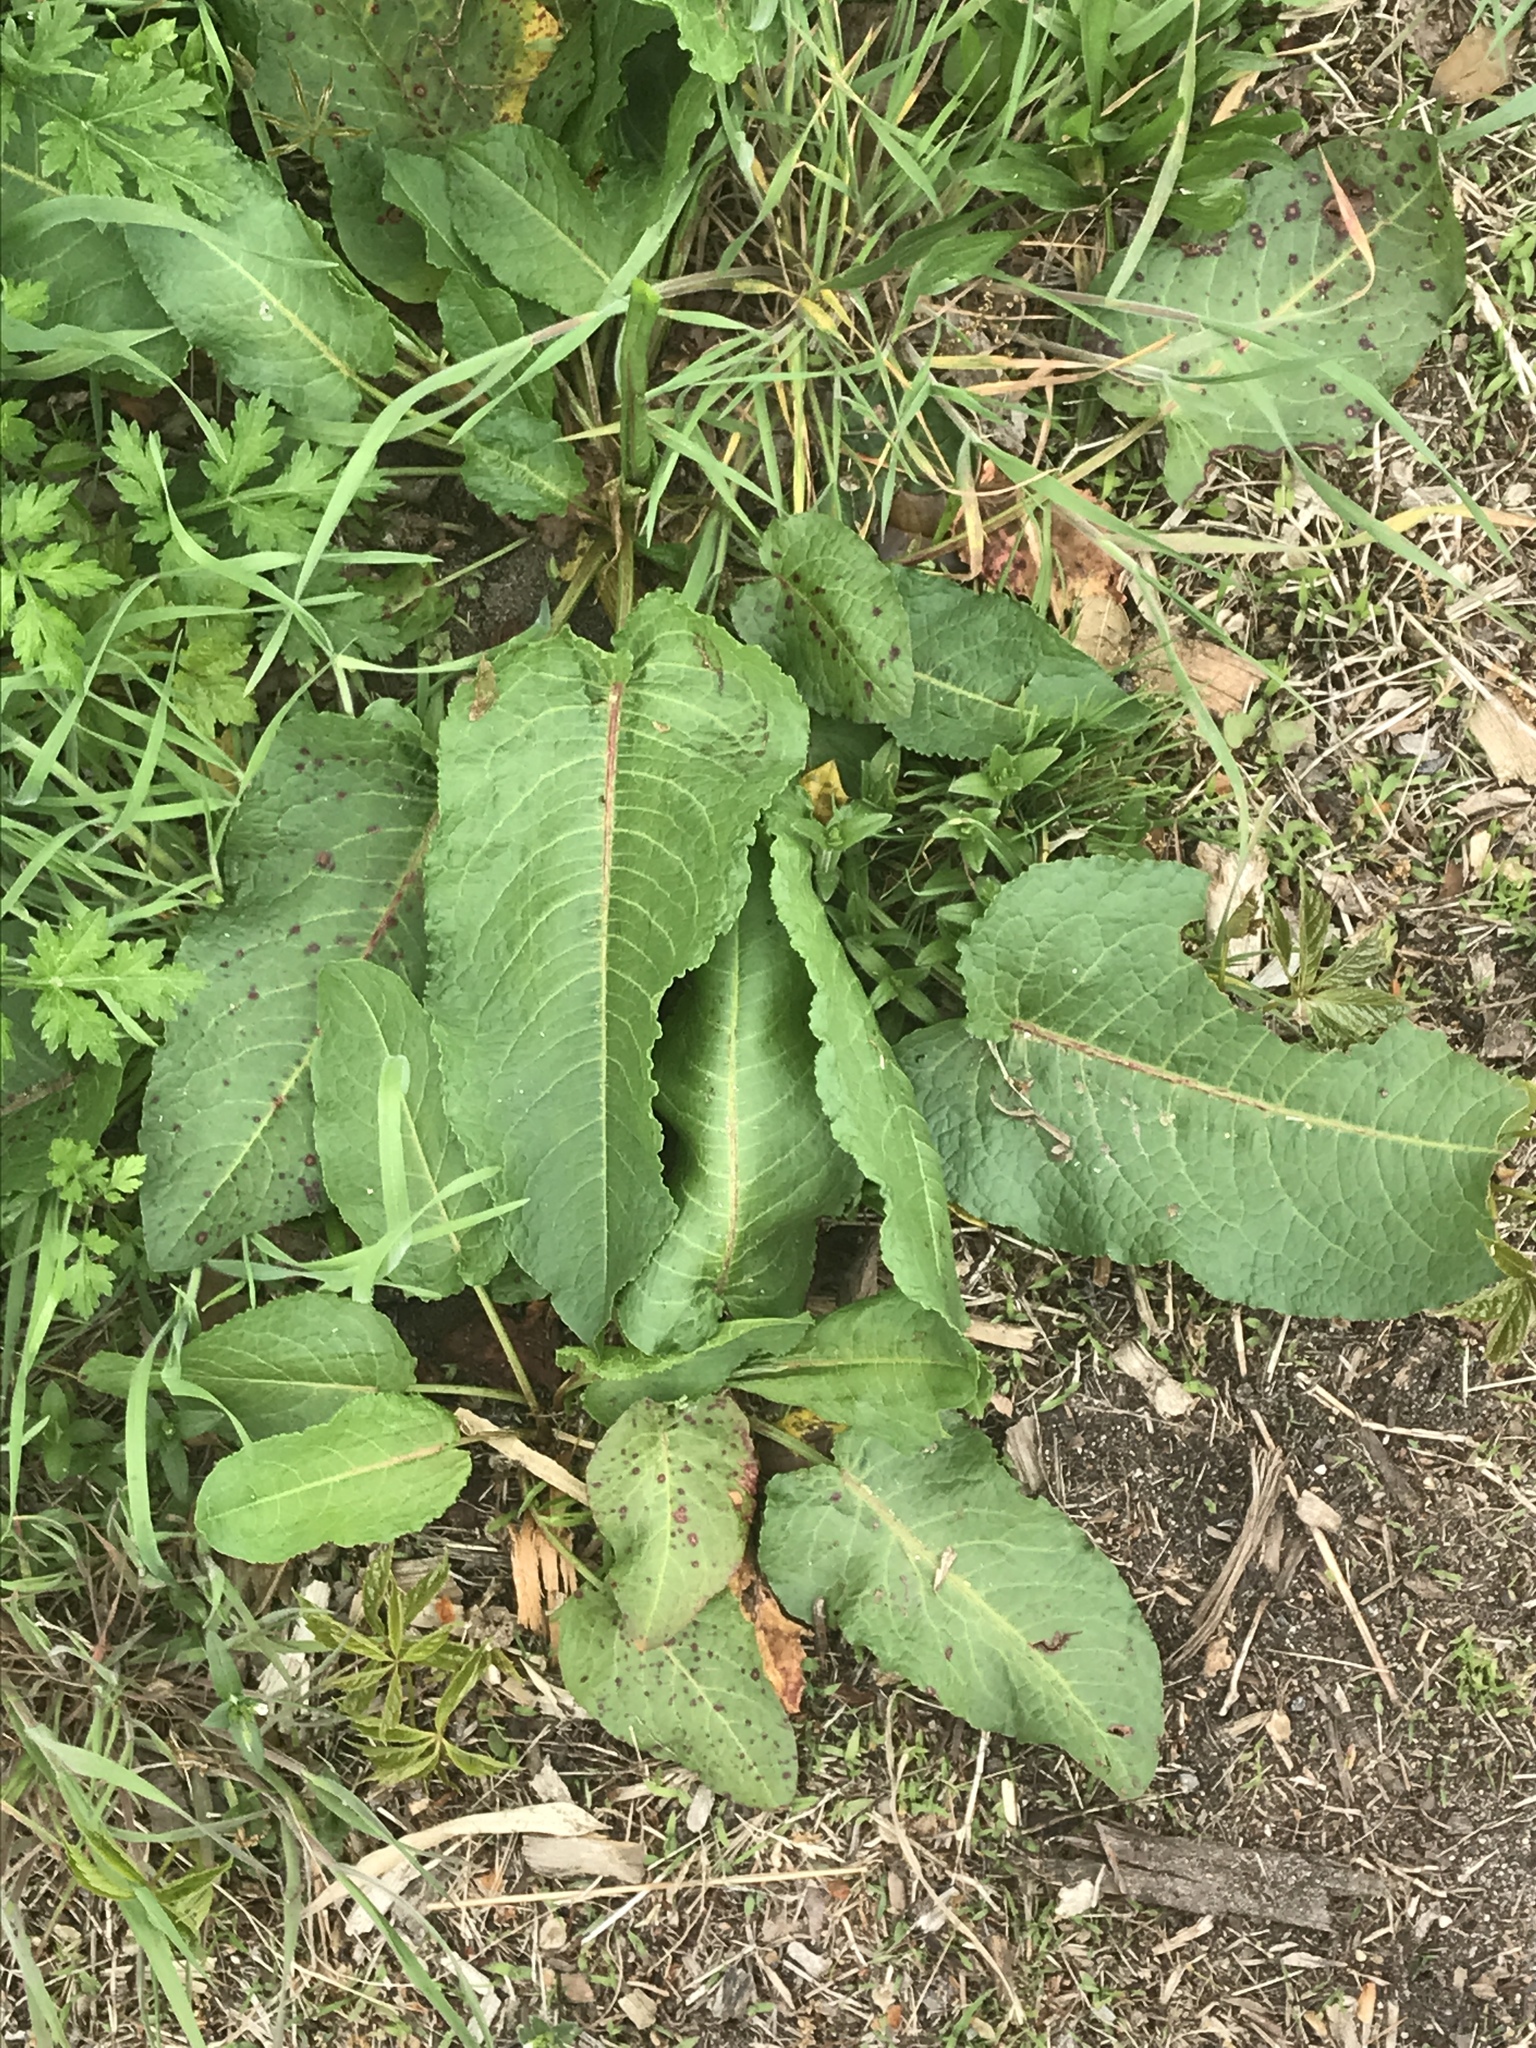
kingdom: Plantae
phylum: Tracheophyta
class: Magnoliopsida
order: Caryophyllales
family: Polygonaceae
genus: Rumex
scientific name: Rumex obtusifolius
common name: Bitter dock
